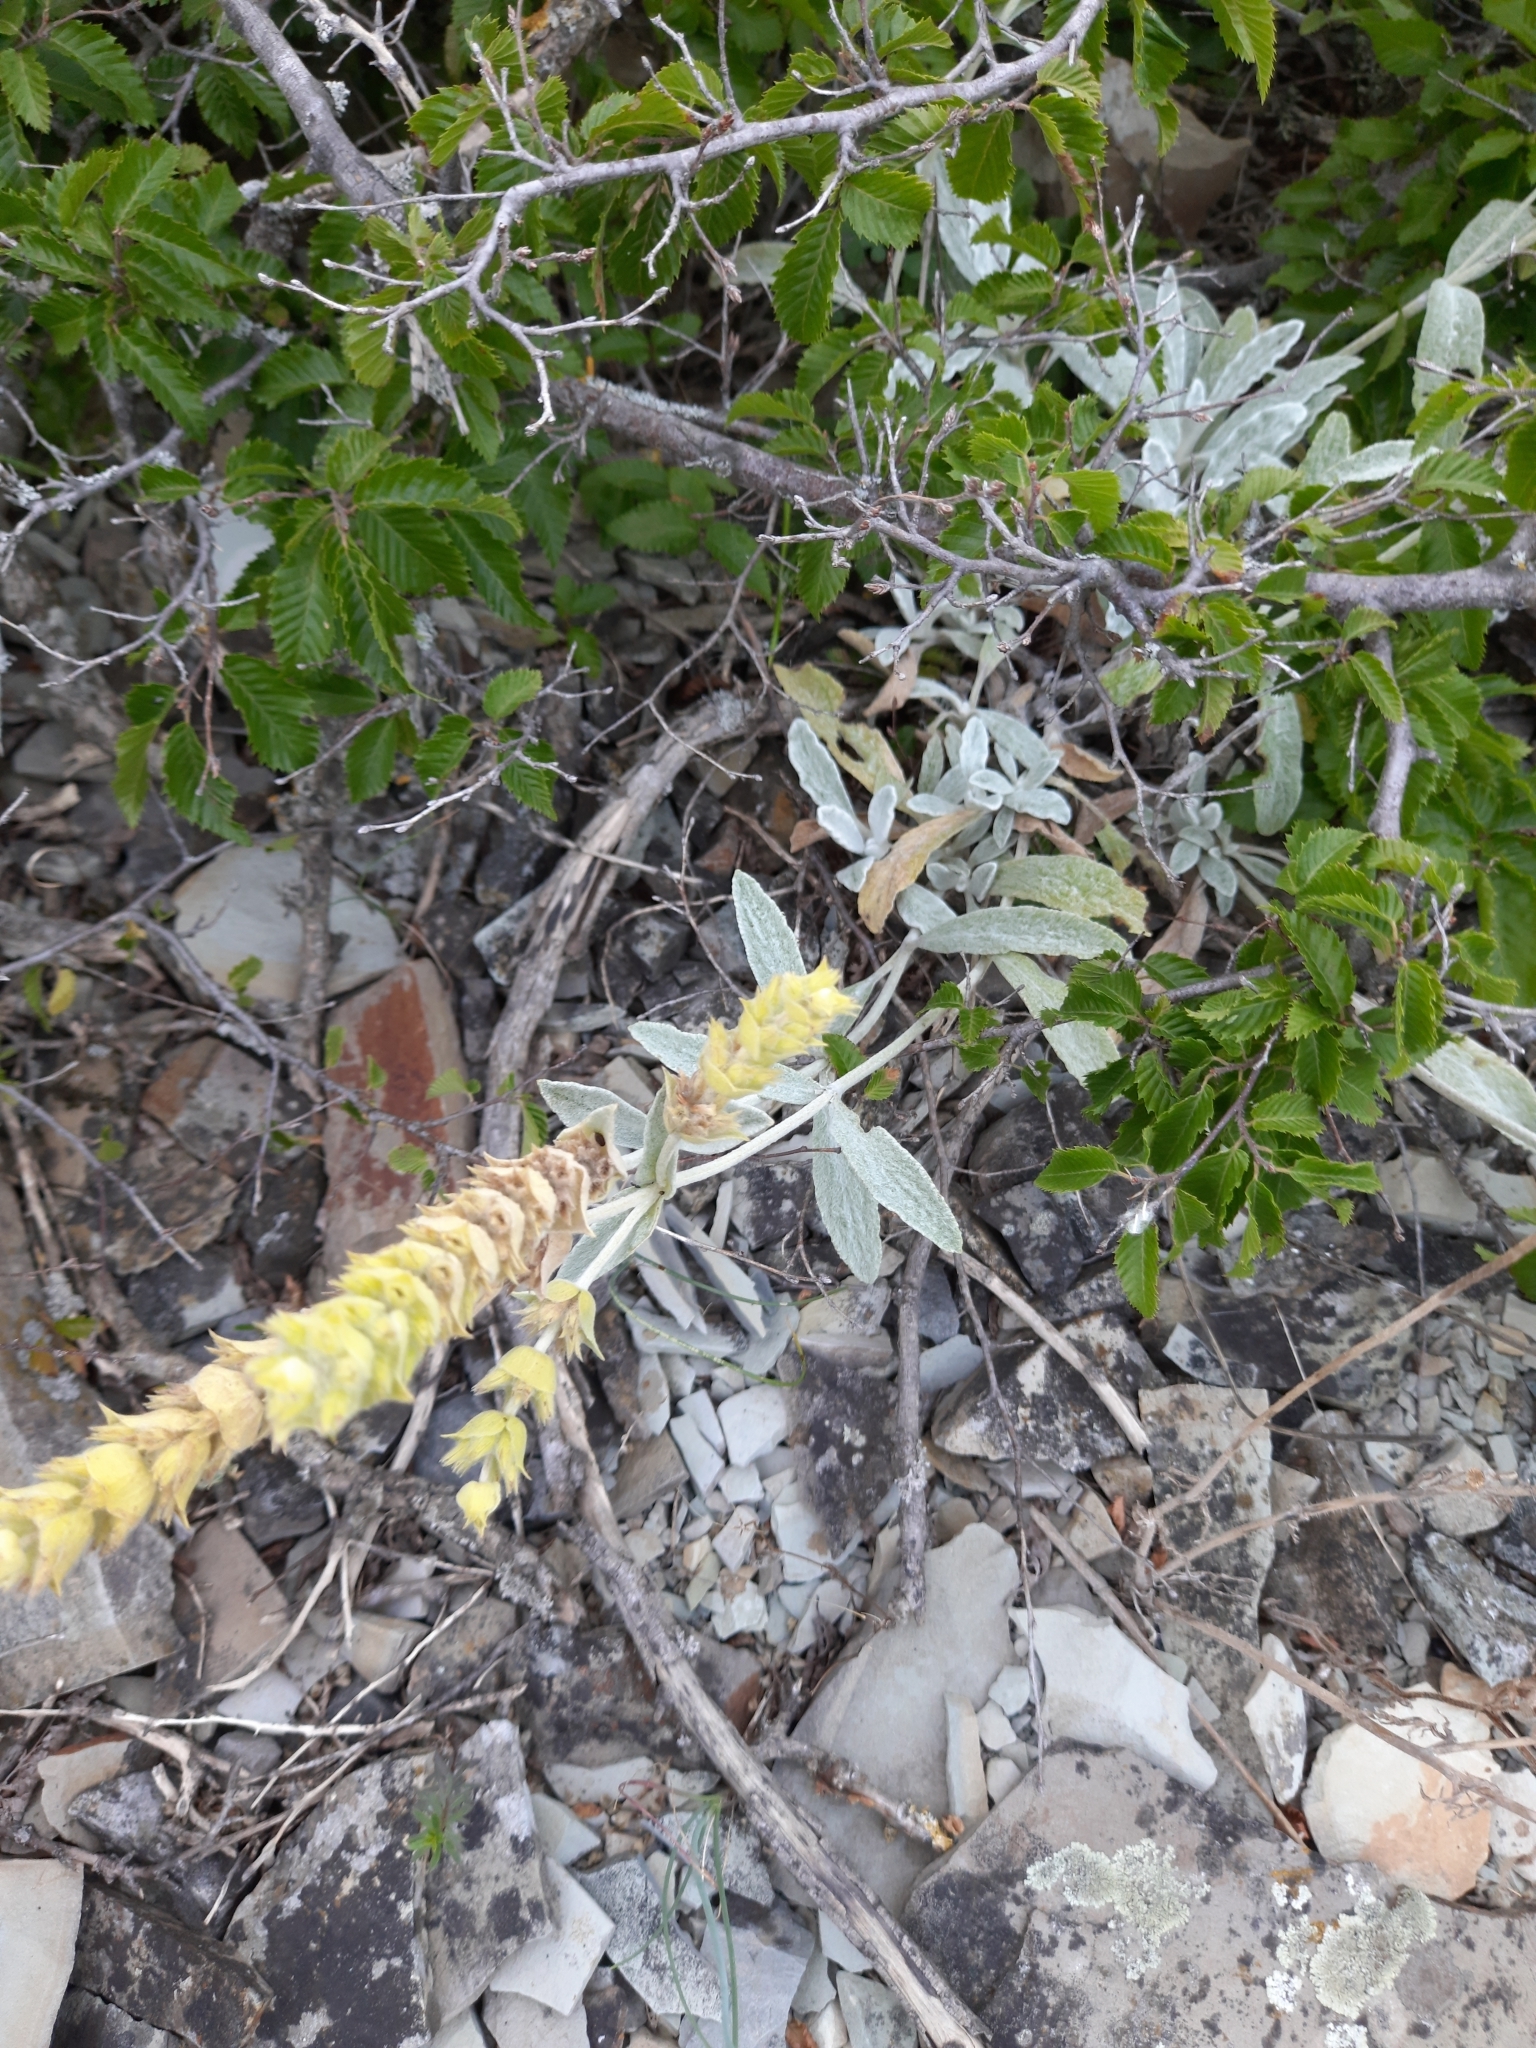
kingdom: Plantae
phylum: Tracheophyta
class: Magnoliopsida
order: Lamiales
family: Lamiaceae
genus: Sideritis
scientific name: Sideritis euxina
